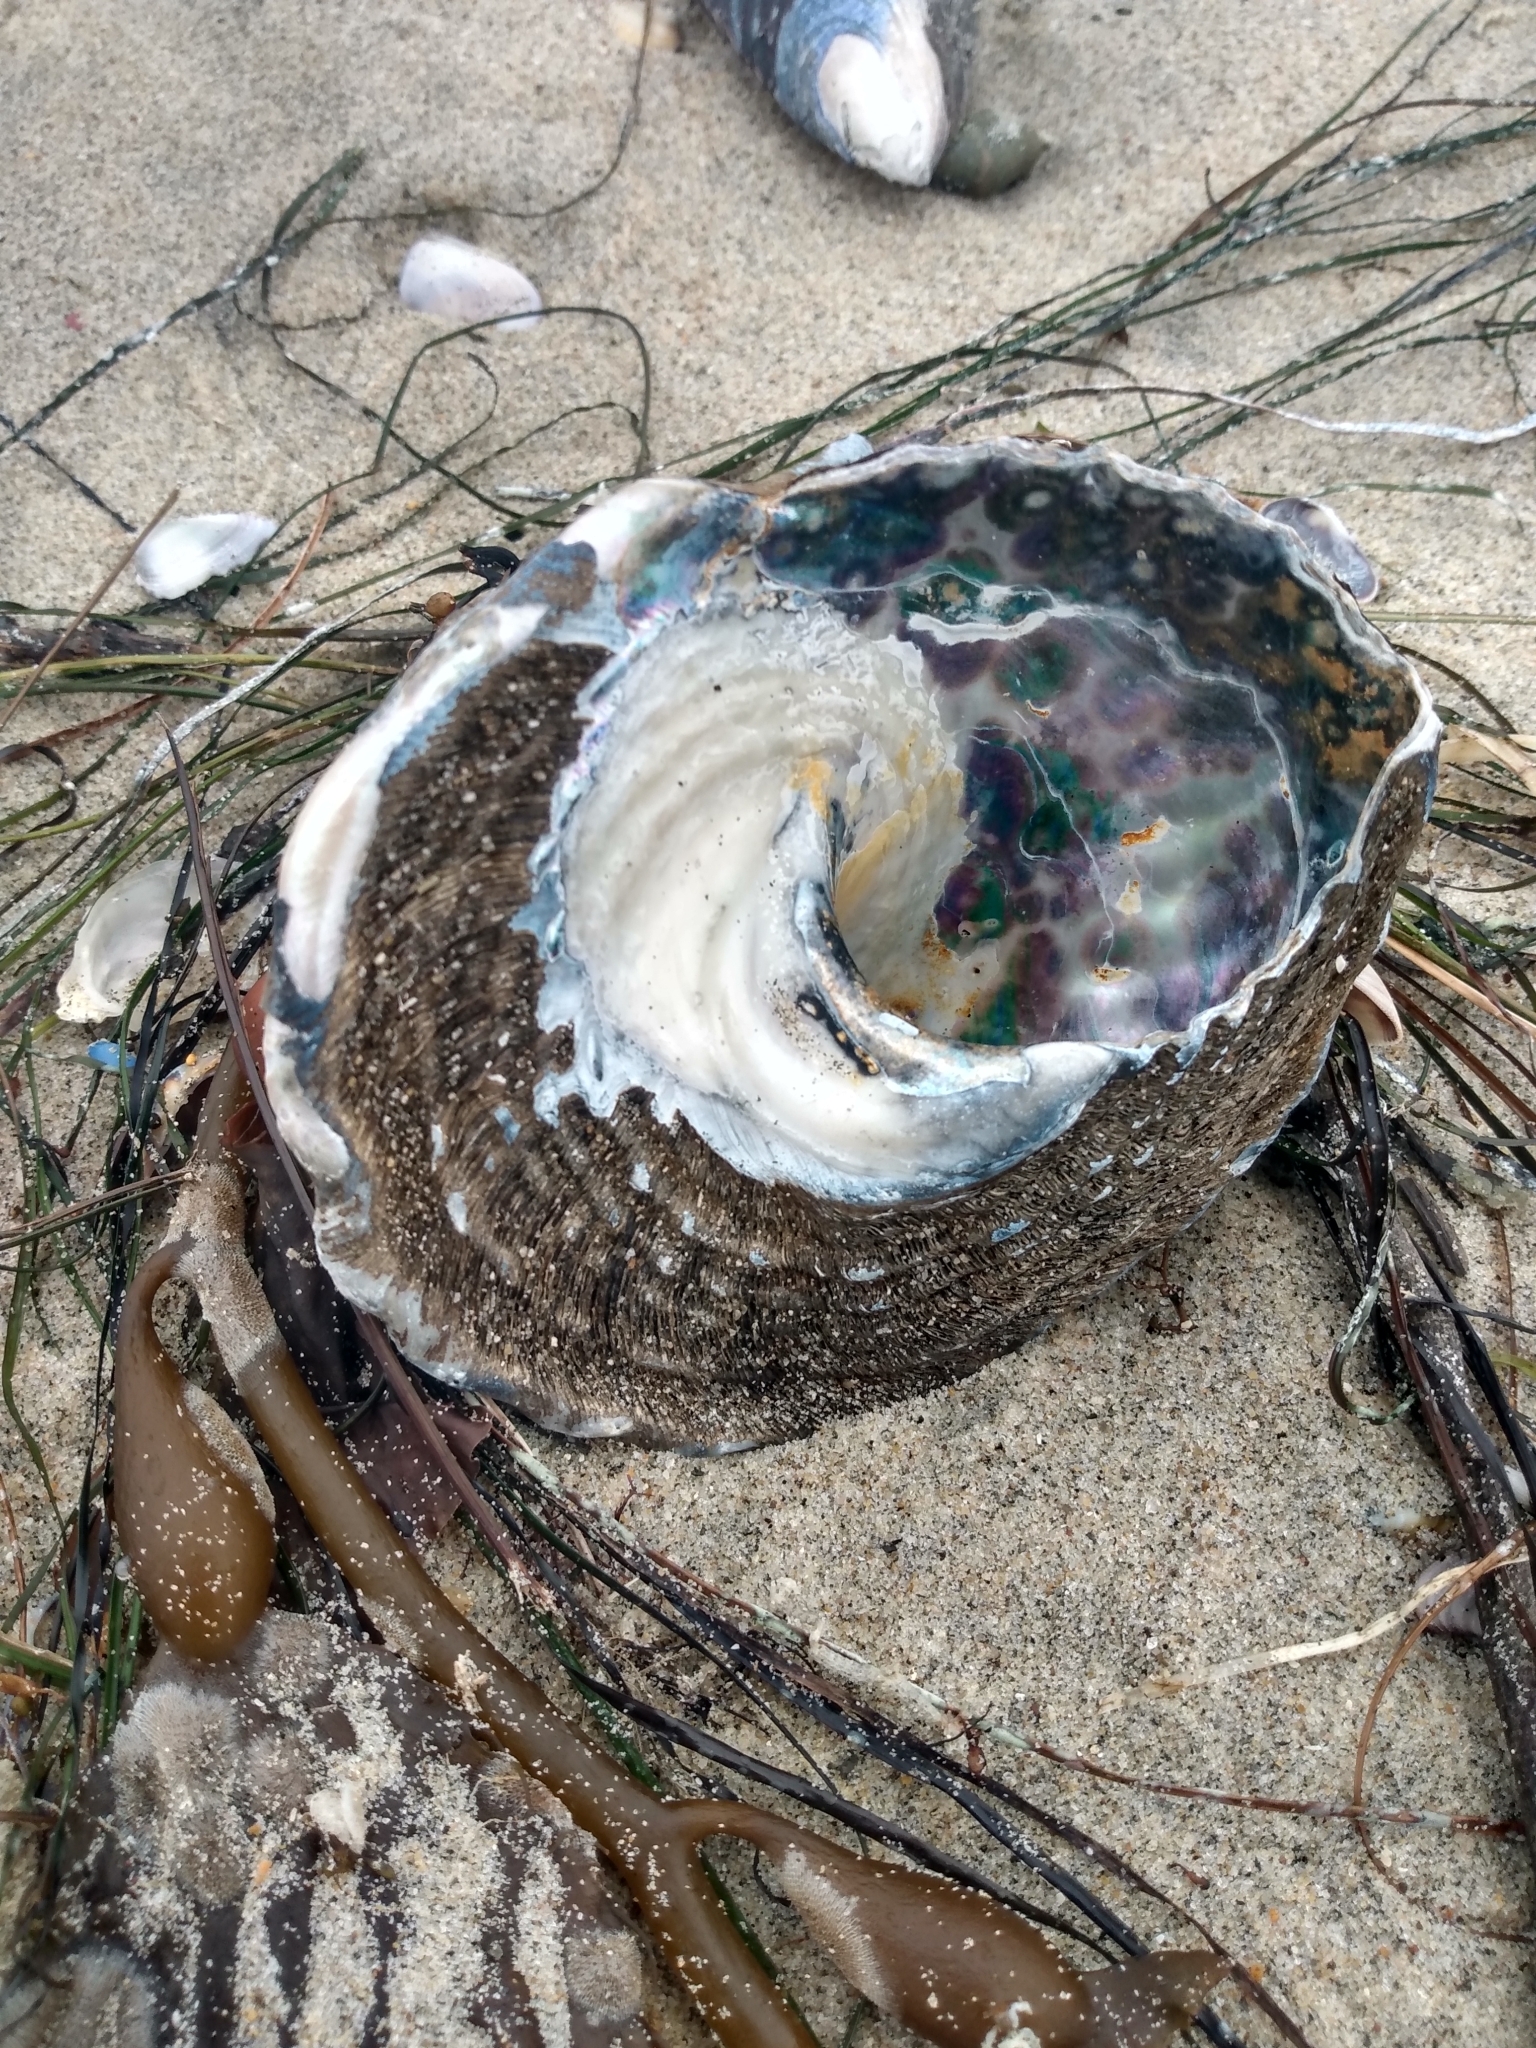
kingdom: Animalia
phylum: Mollusca
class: Gastropoda
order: Trochida
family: Turbinidae
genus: Megastraea
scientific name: Megastraea undosa
